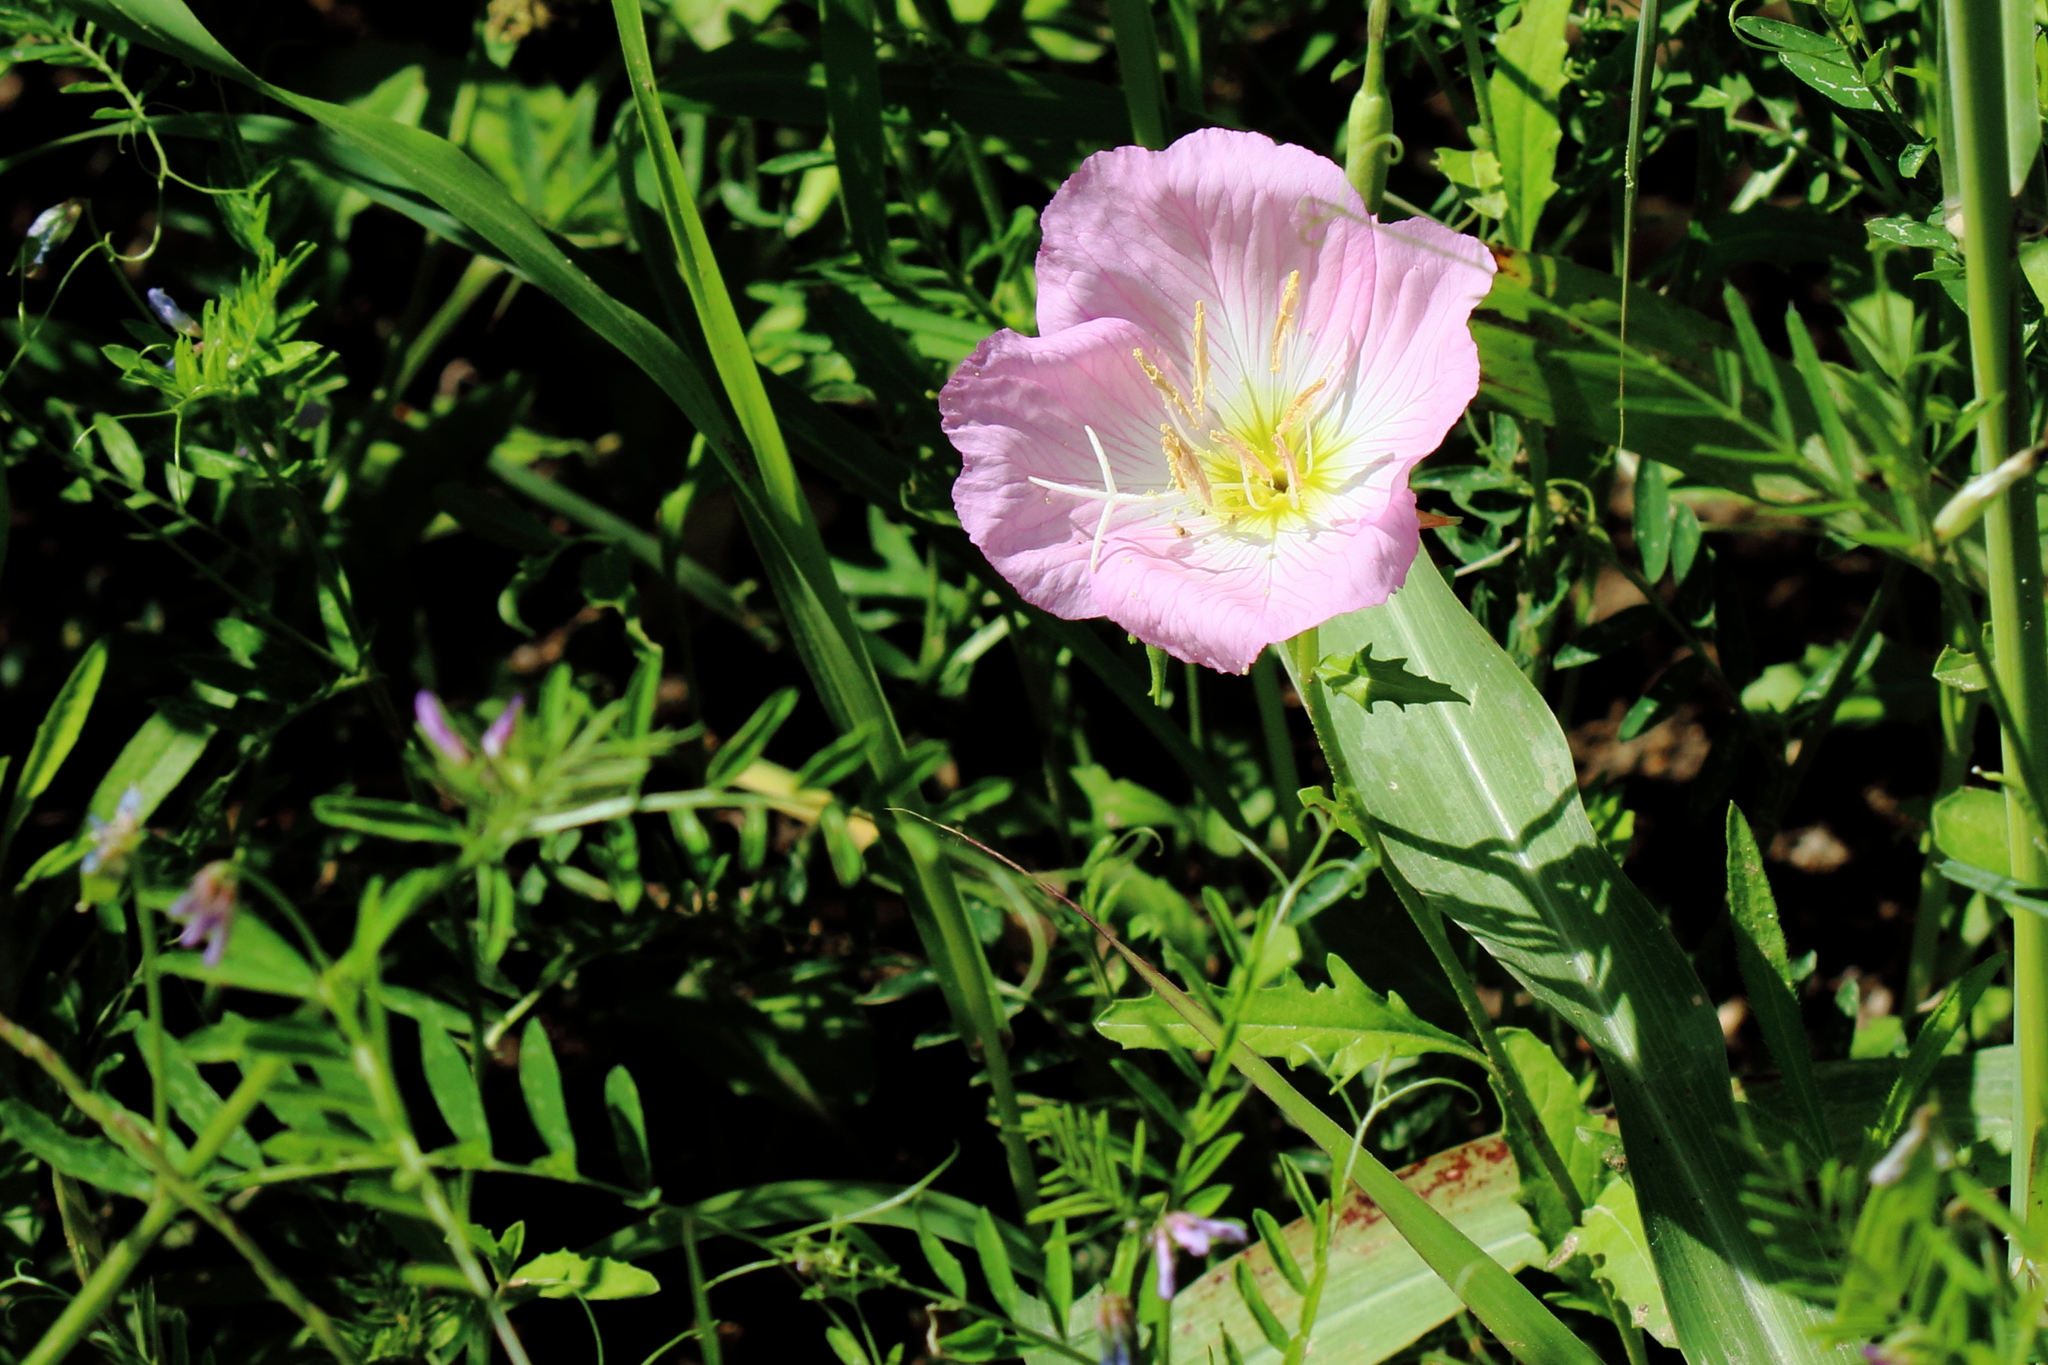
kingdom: Plantae
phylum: Tracheophyta
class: Magnoliopsida
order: Myrtales
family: Onagraceae
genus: Oenothera
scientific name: Oenothera speciosa
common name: White evening-primrose
